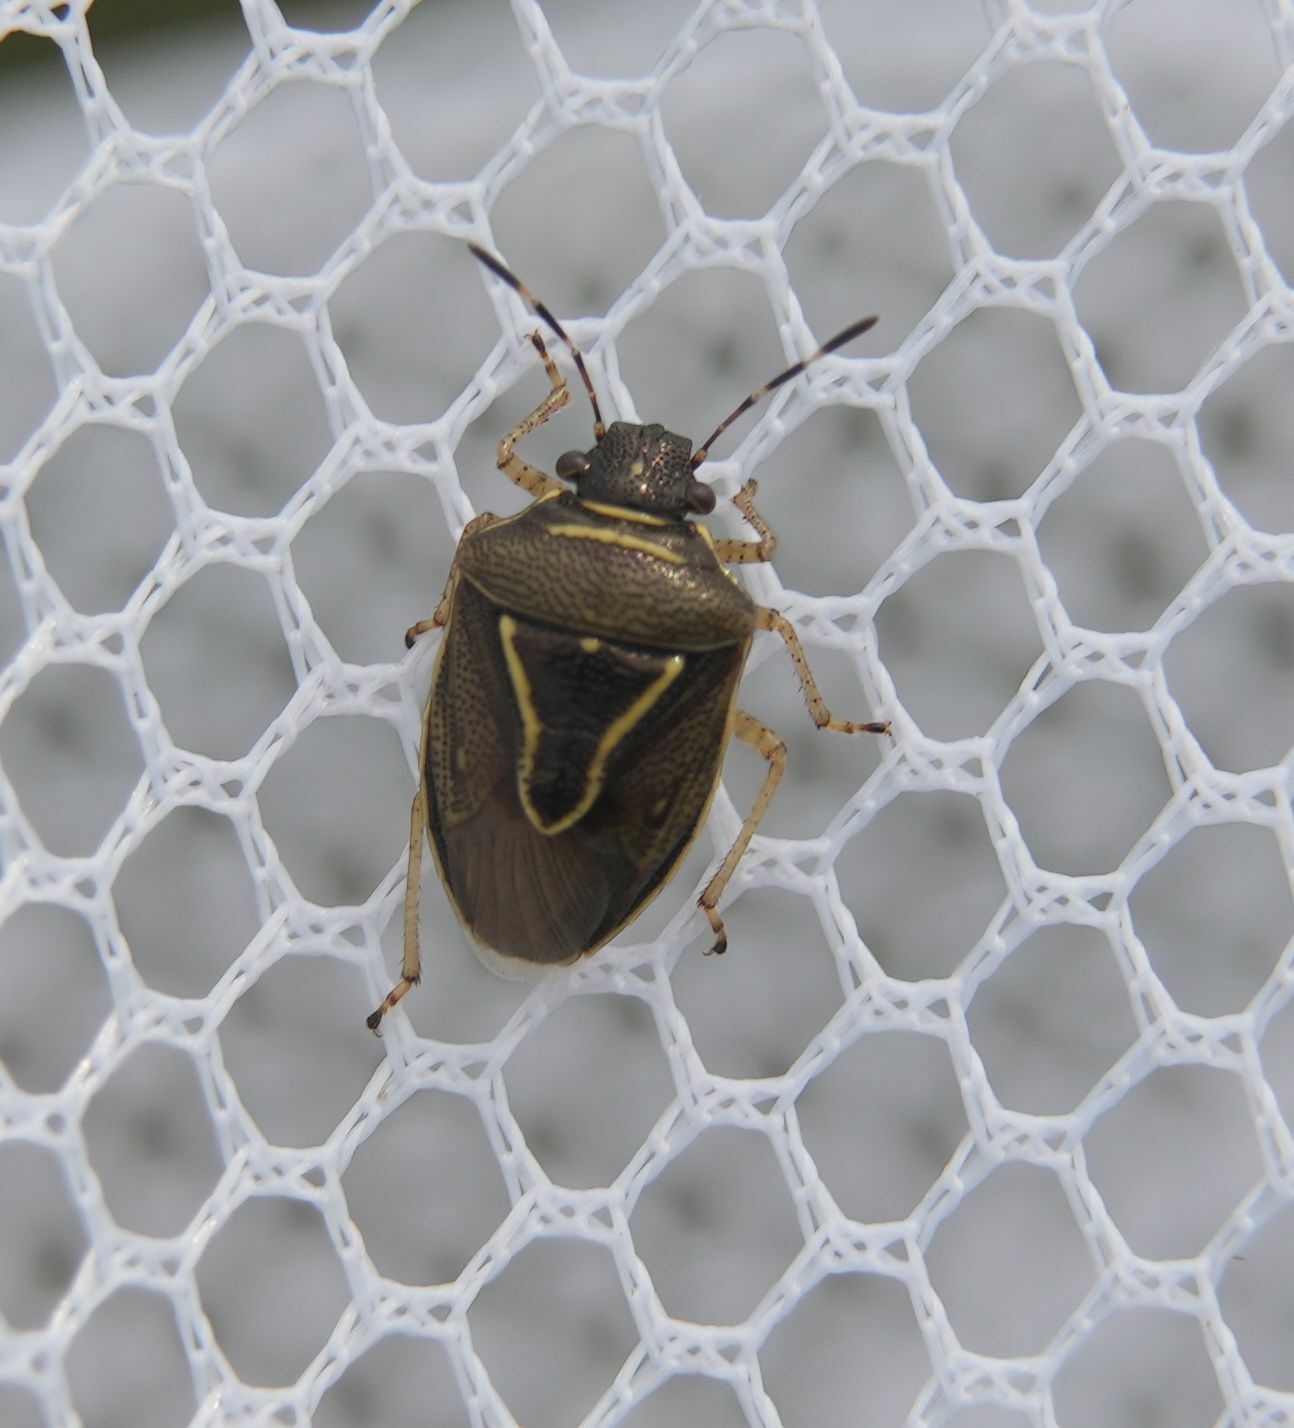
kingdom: Animalia
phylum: Arthropoda
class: Insecta
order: Hemiptera
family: Pentatomidae
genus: Mormidea
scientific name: Mormidea lugens
